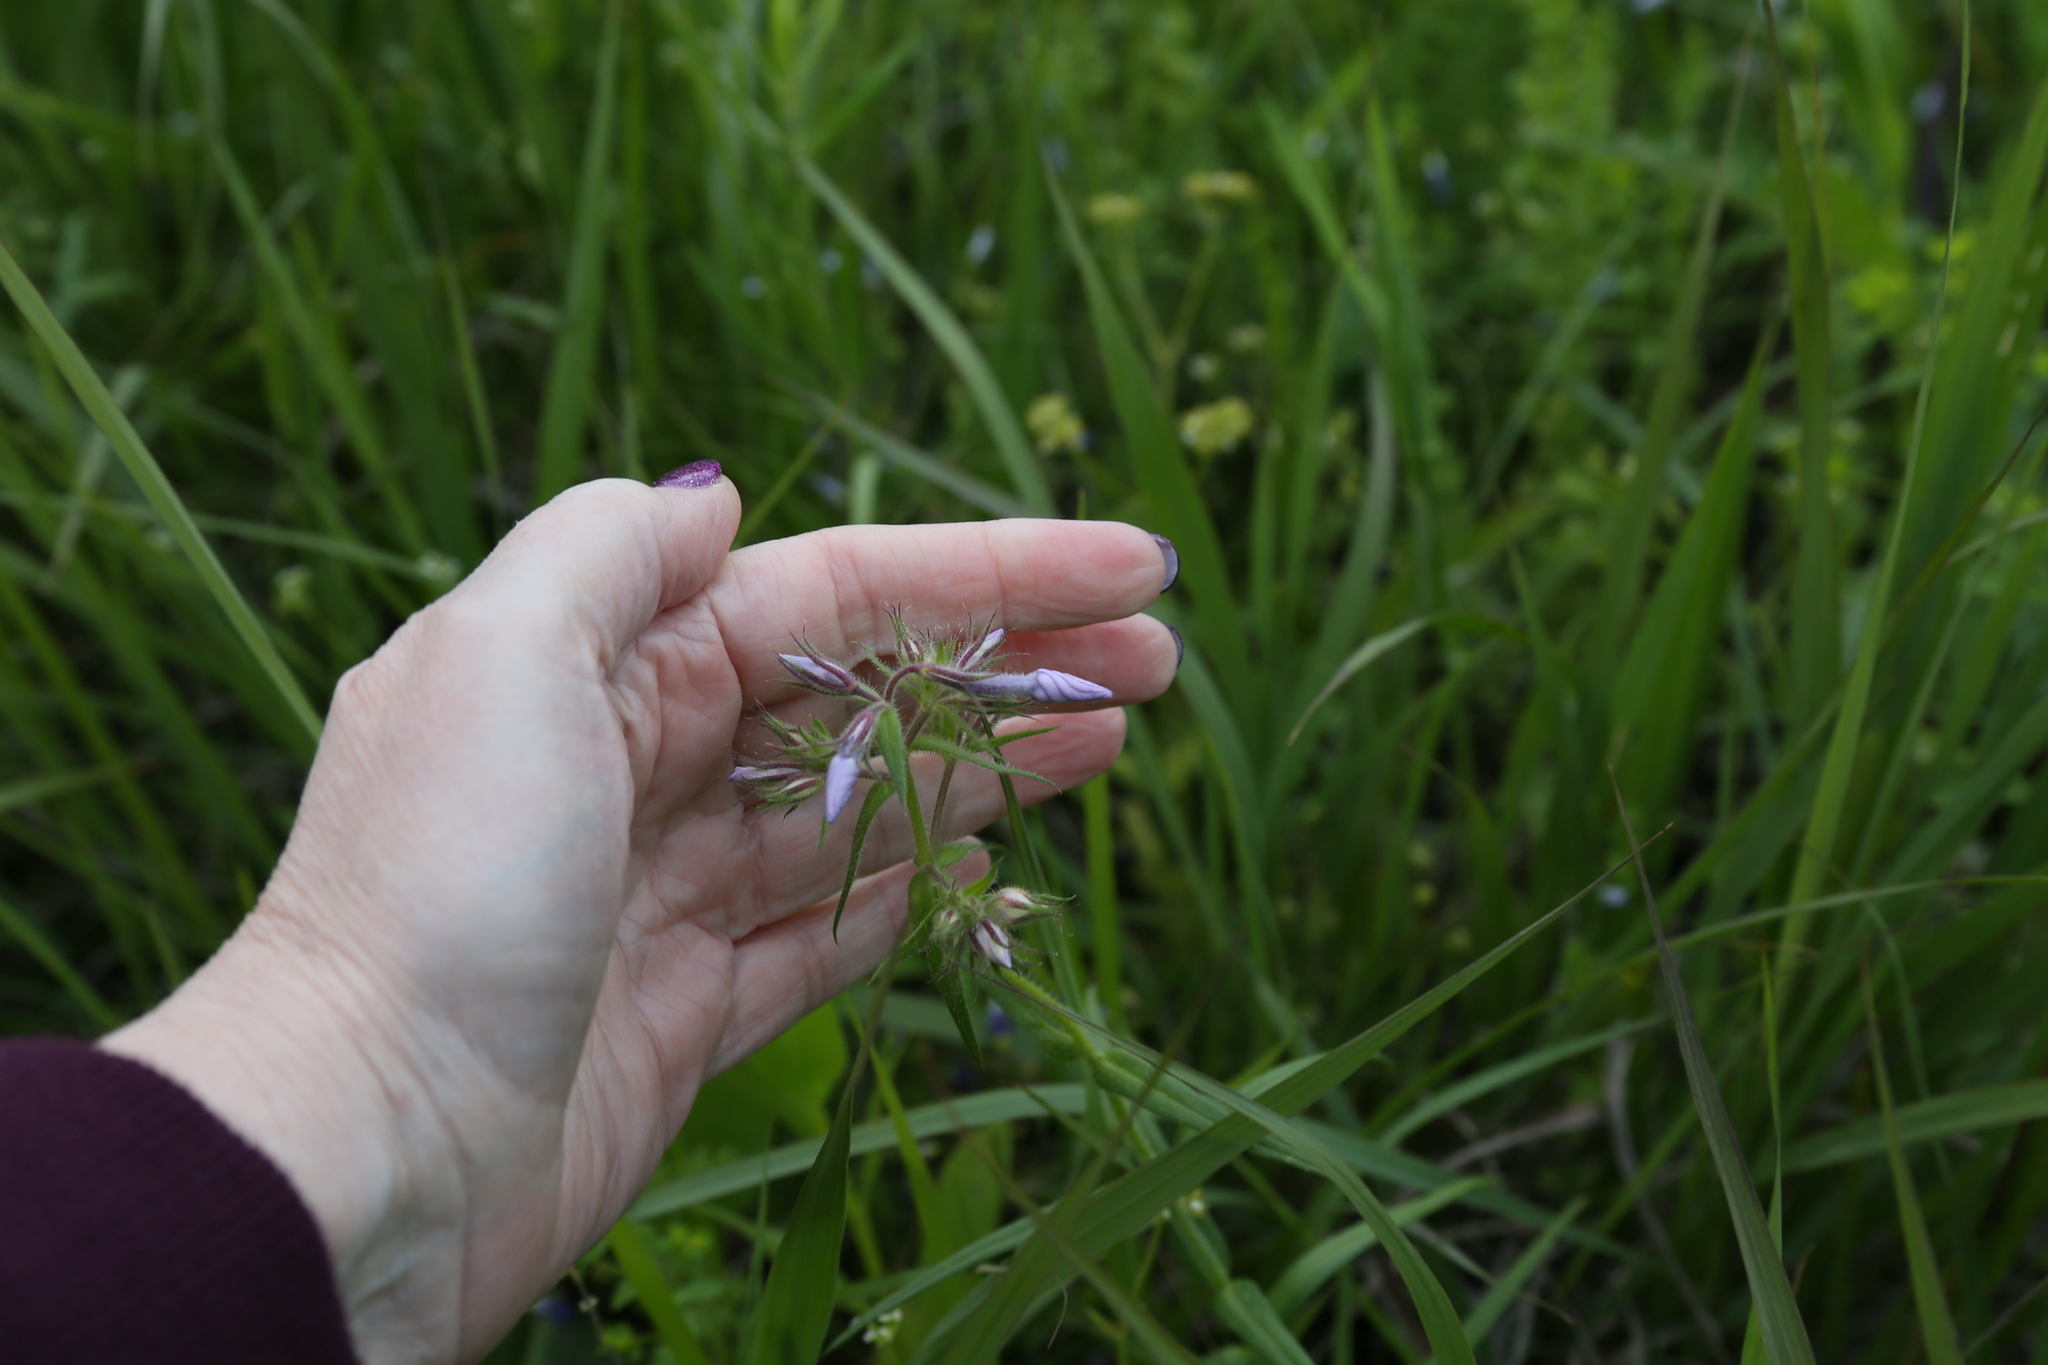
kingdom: Plantae
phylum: Tracheophyta
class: Magnoliopsida
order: Ericales
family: Polemoniaceae
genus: Phlox
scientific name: Phlox pilosa
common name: Prairie phlox
